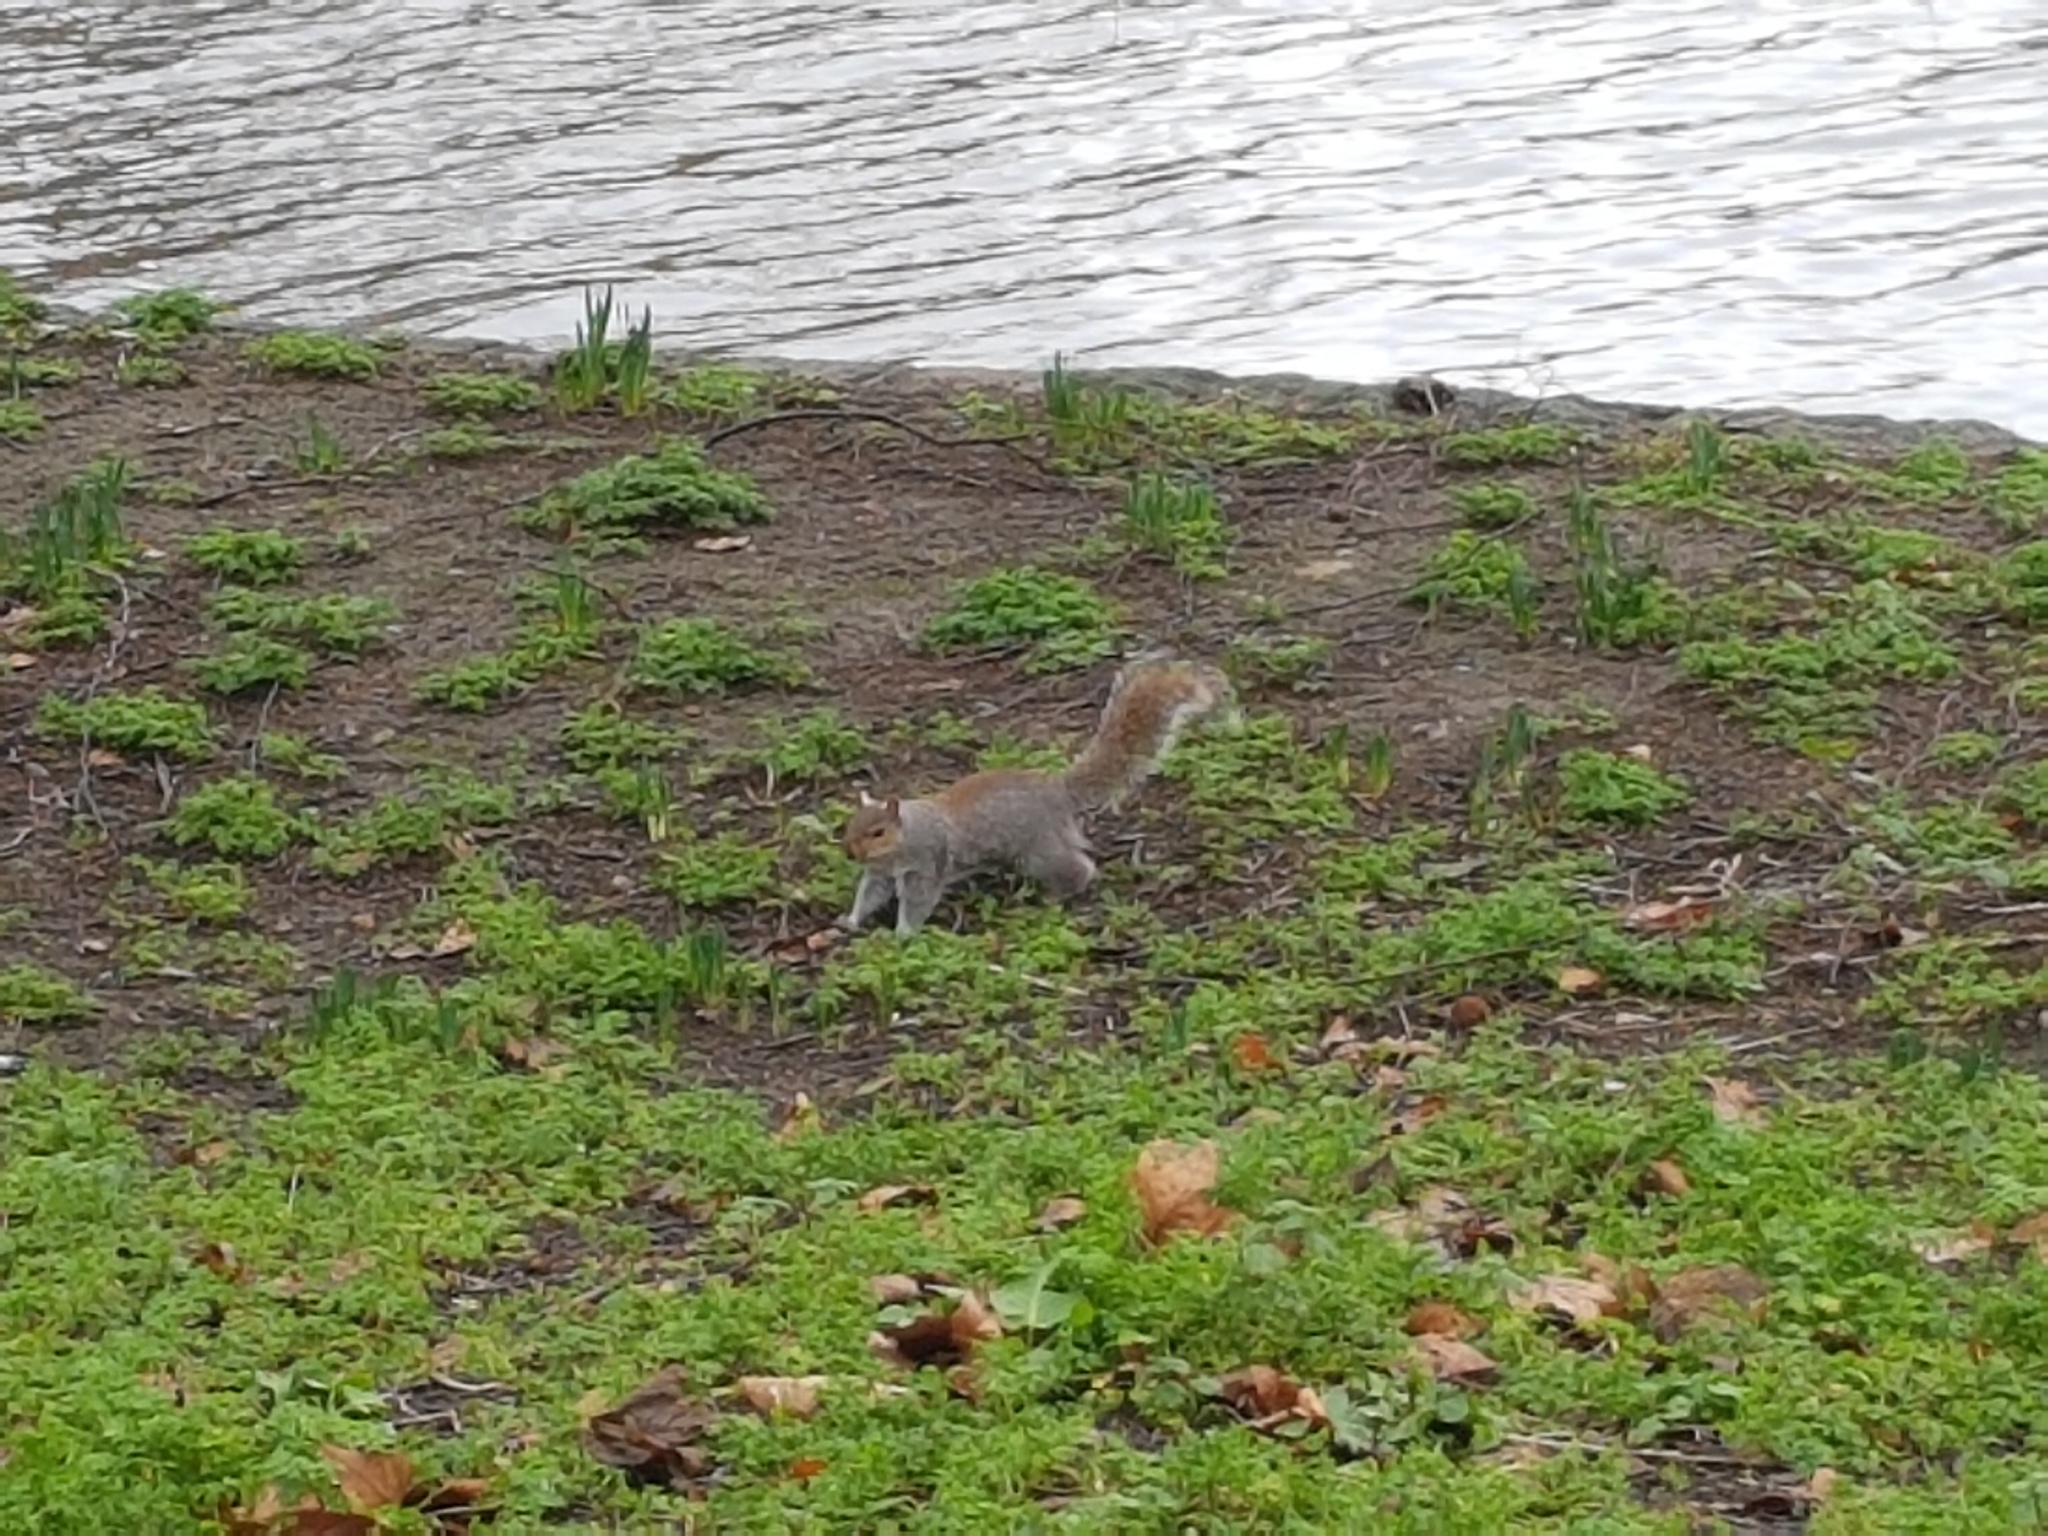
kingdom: Animalia
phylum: Chordata
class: Mammalia
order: Rodentia
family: Sciuridae
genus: Sciurus
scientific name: Sciurus carolinensis
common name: Eastern gray squirrel
